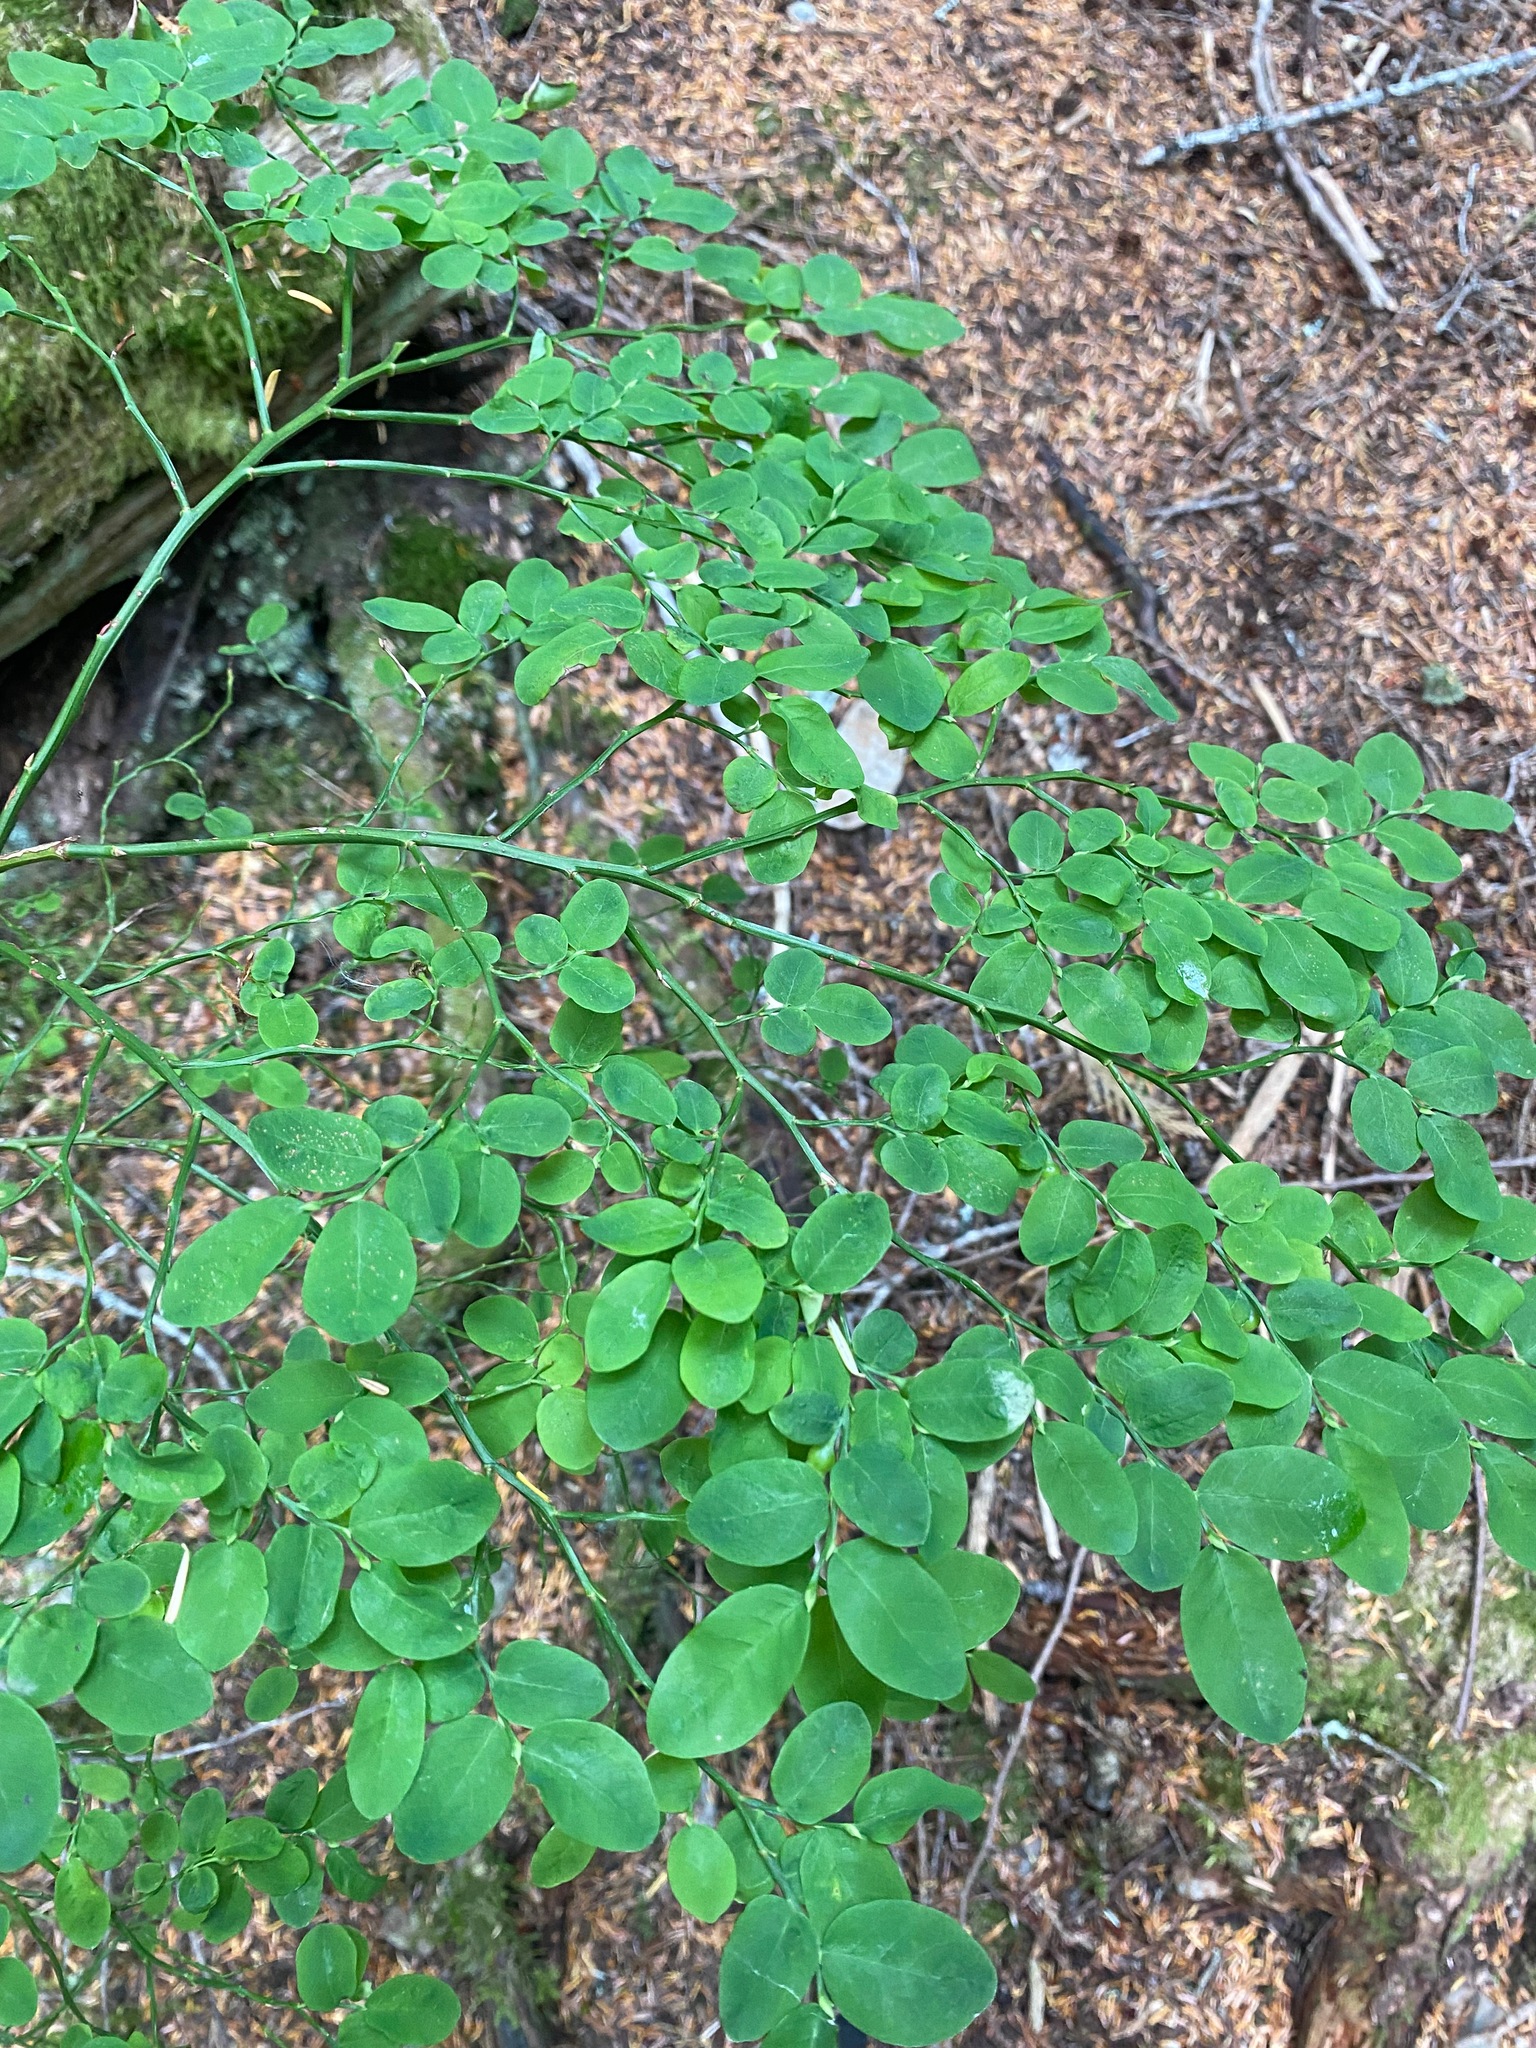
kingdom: Plantae
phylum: Tracheophyta
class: Magnoliopsida
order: Ericales
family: Ericaceae
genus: Vaccinium
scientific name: Vaccinium parvifolium
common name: Red-huckleberry
